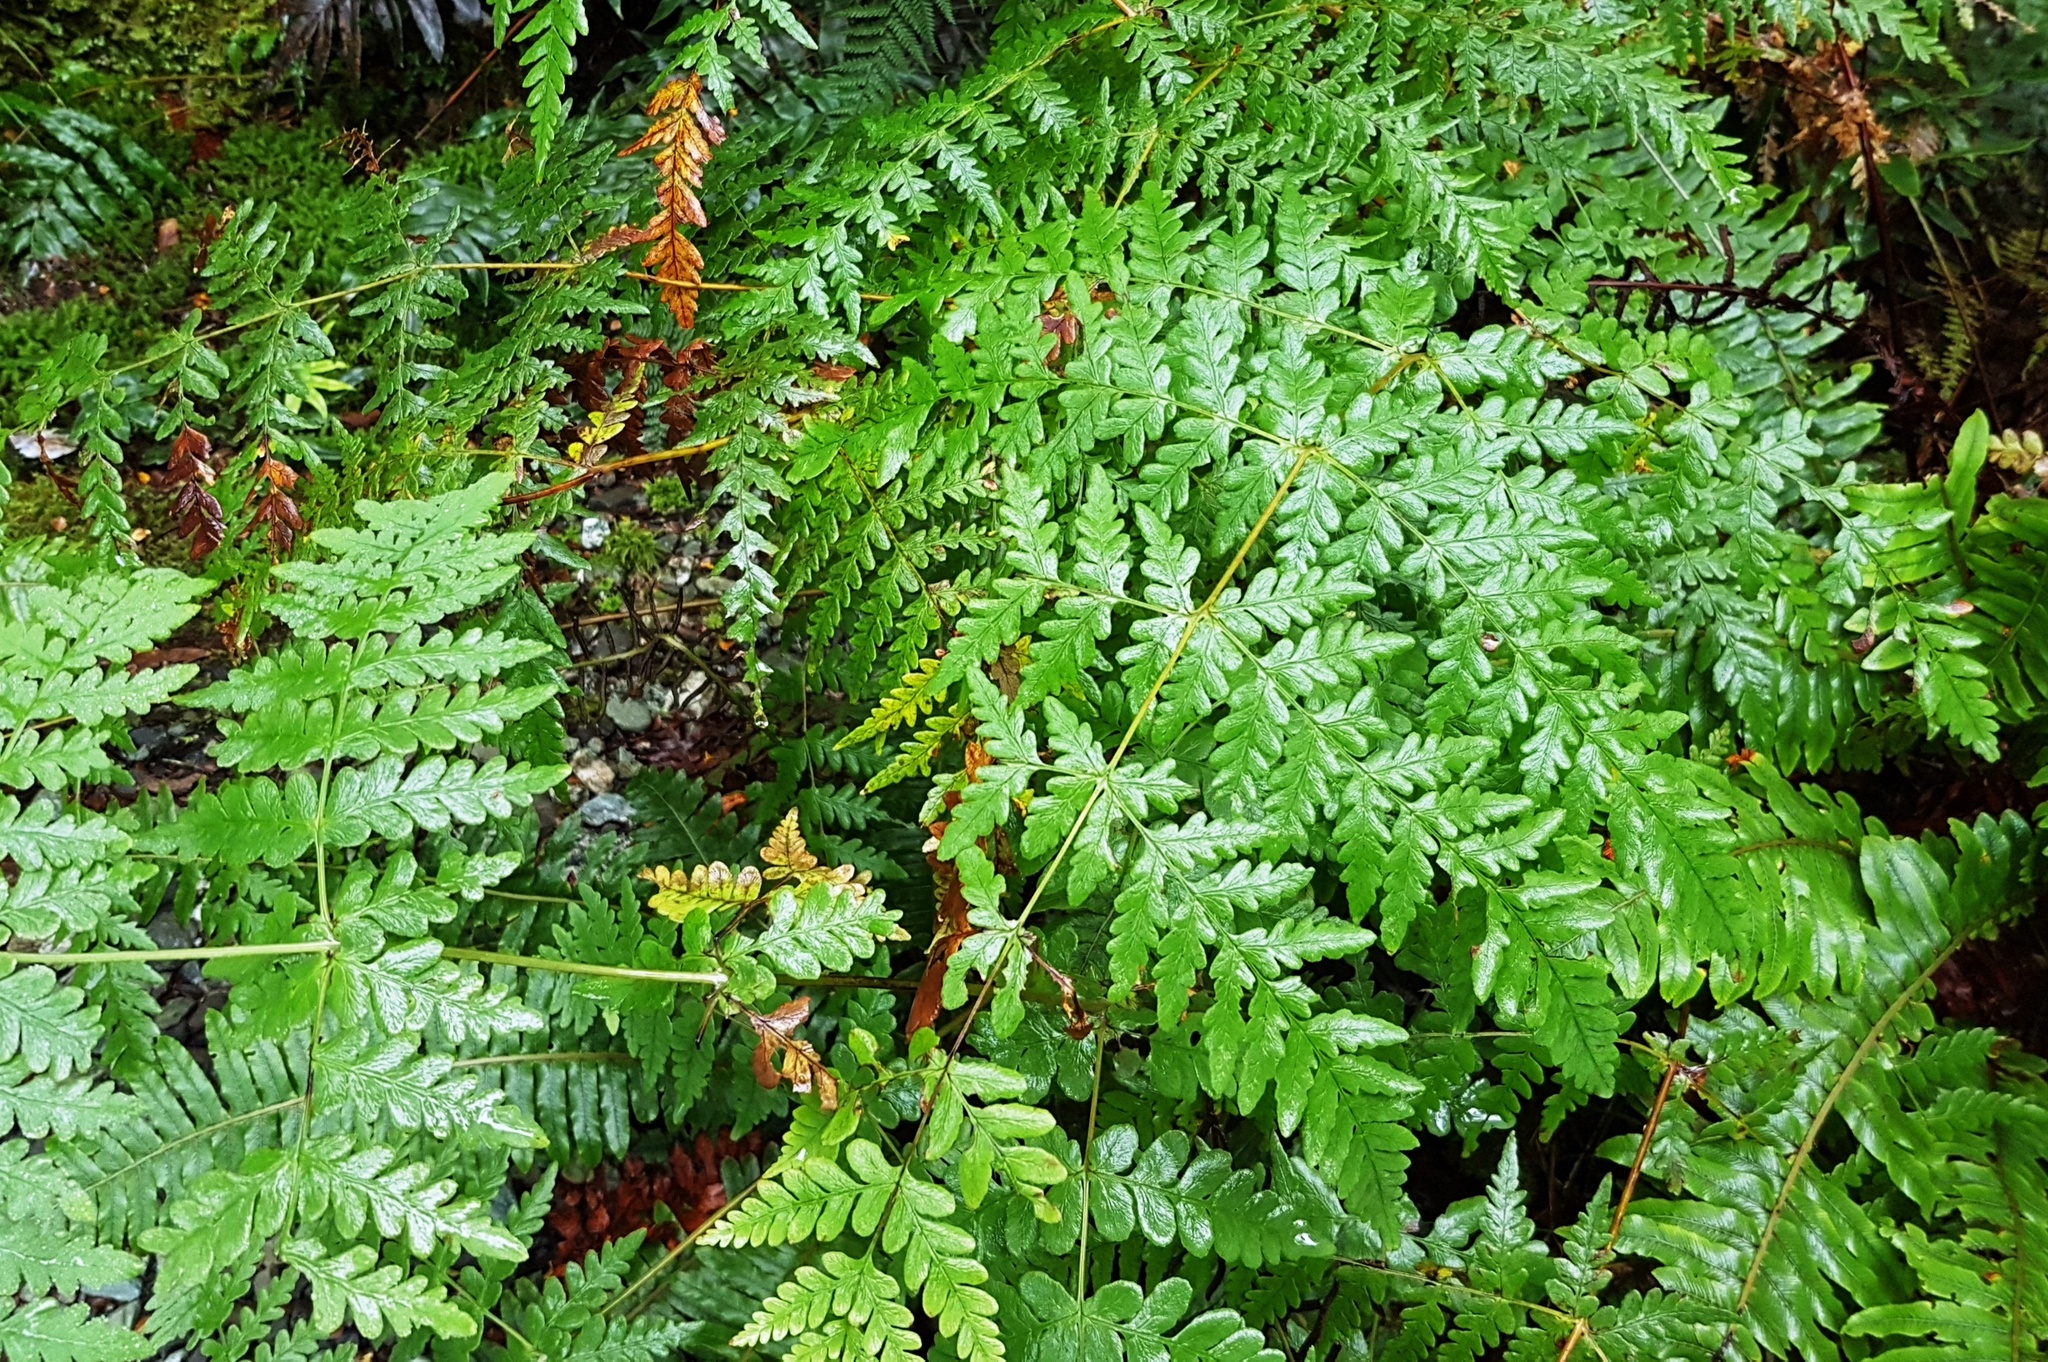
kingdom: Plantae
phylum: Tracheophyta
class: Polypodiopsida
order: Polypodiales
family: Dennstaedtiaceae
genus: Histiopteris
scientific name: Histiopteris incisa
